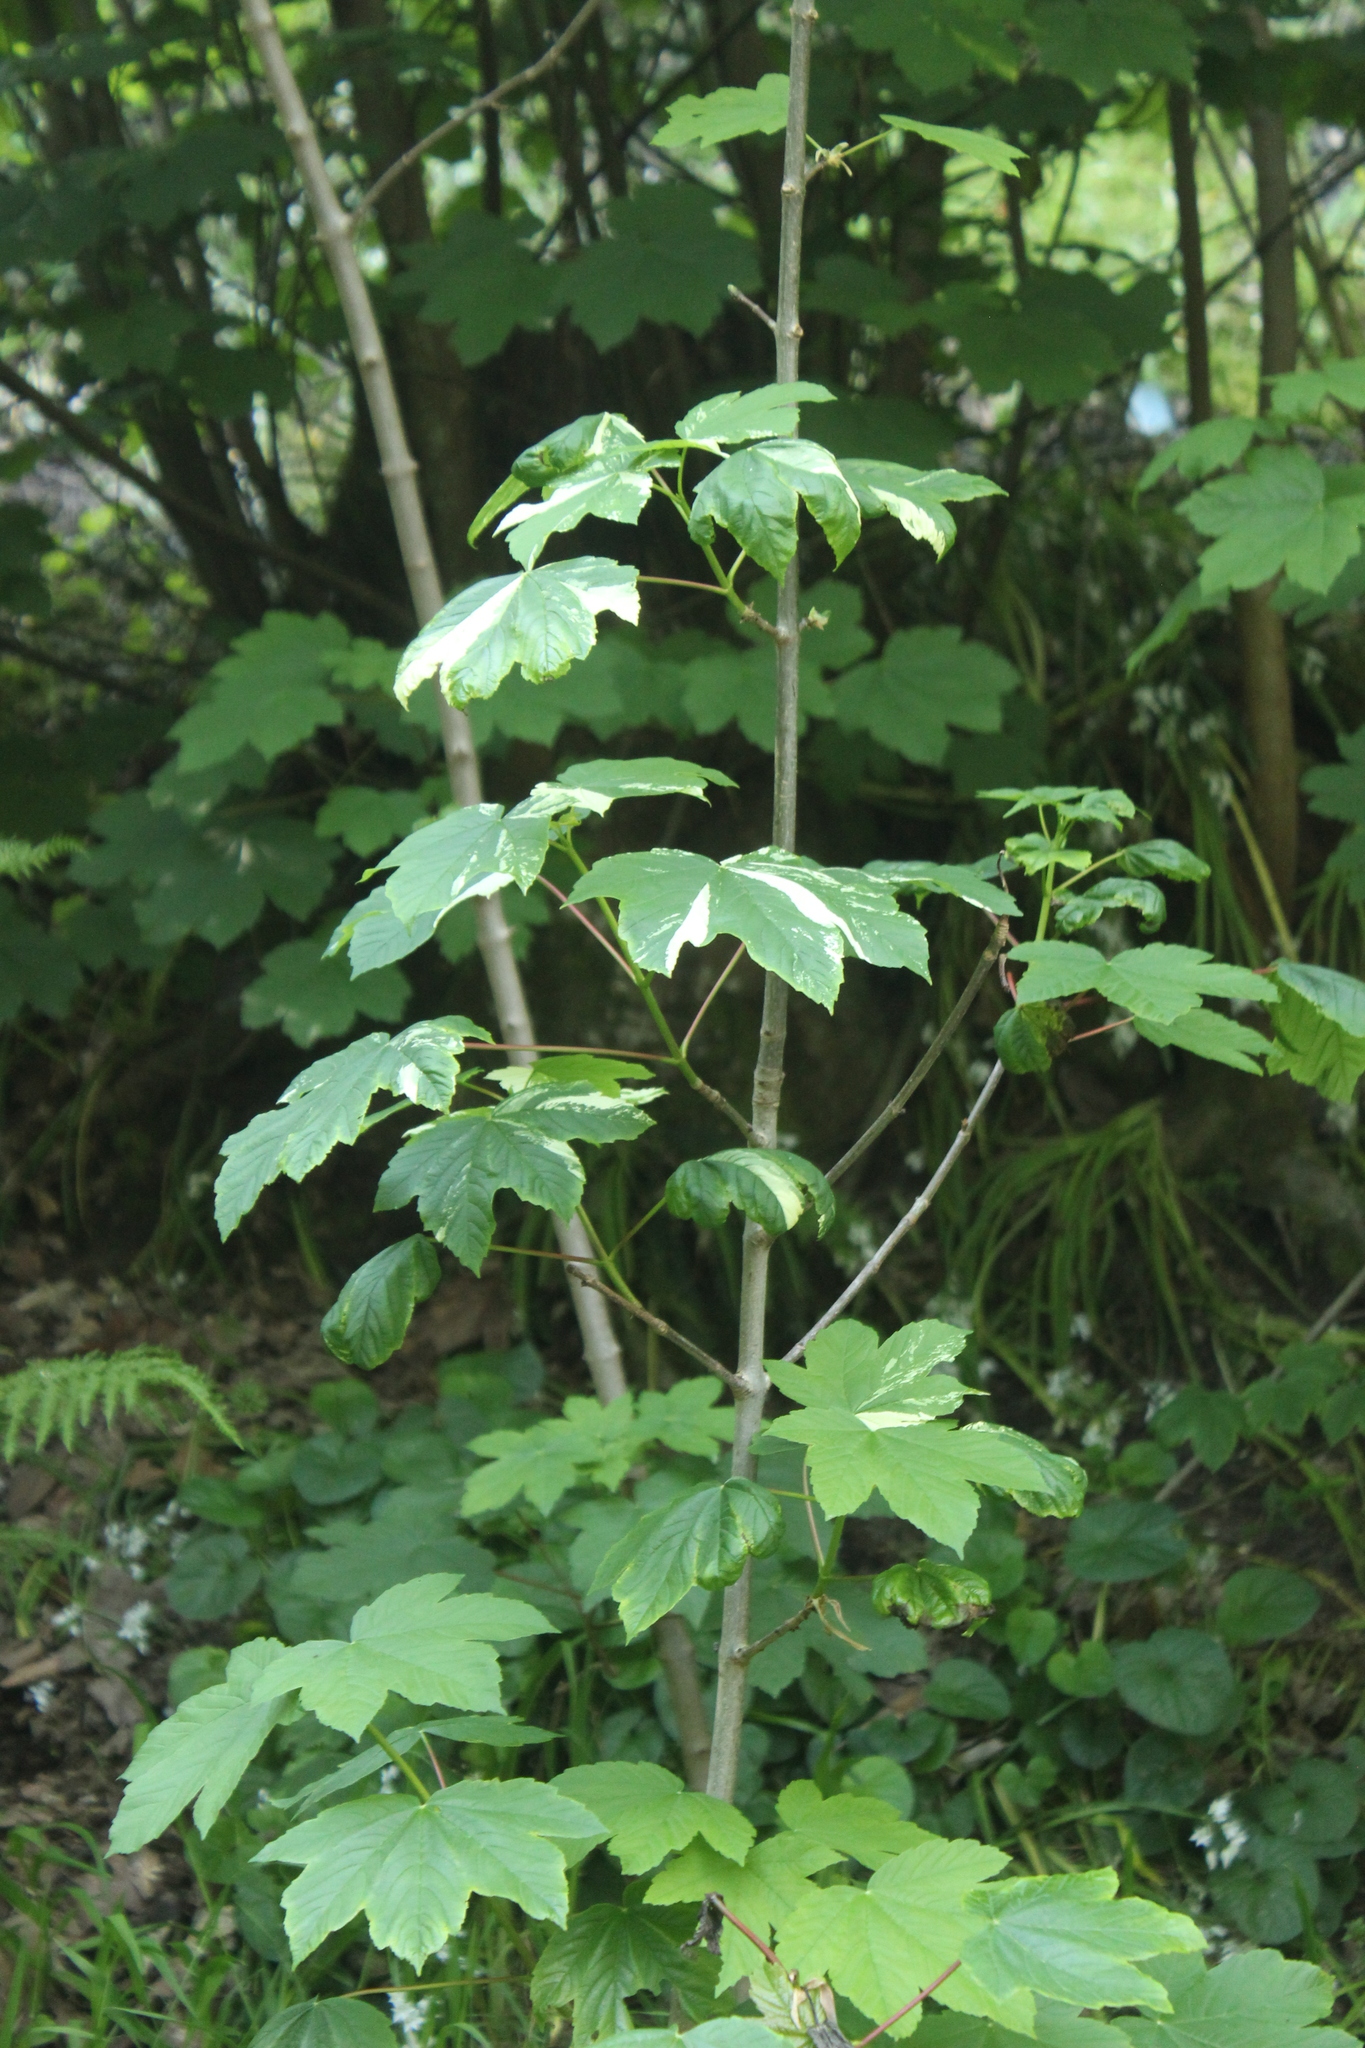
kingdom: Plantae
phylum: Tracheophyta
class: Magnoliopsida
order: Sapindales
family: Sapindaceae
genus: Acer
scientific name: Acer pseudoplatanus
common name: Sycamore
